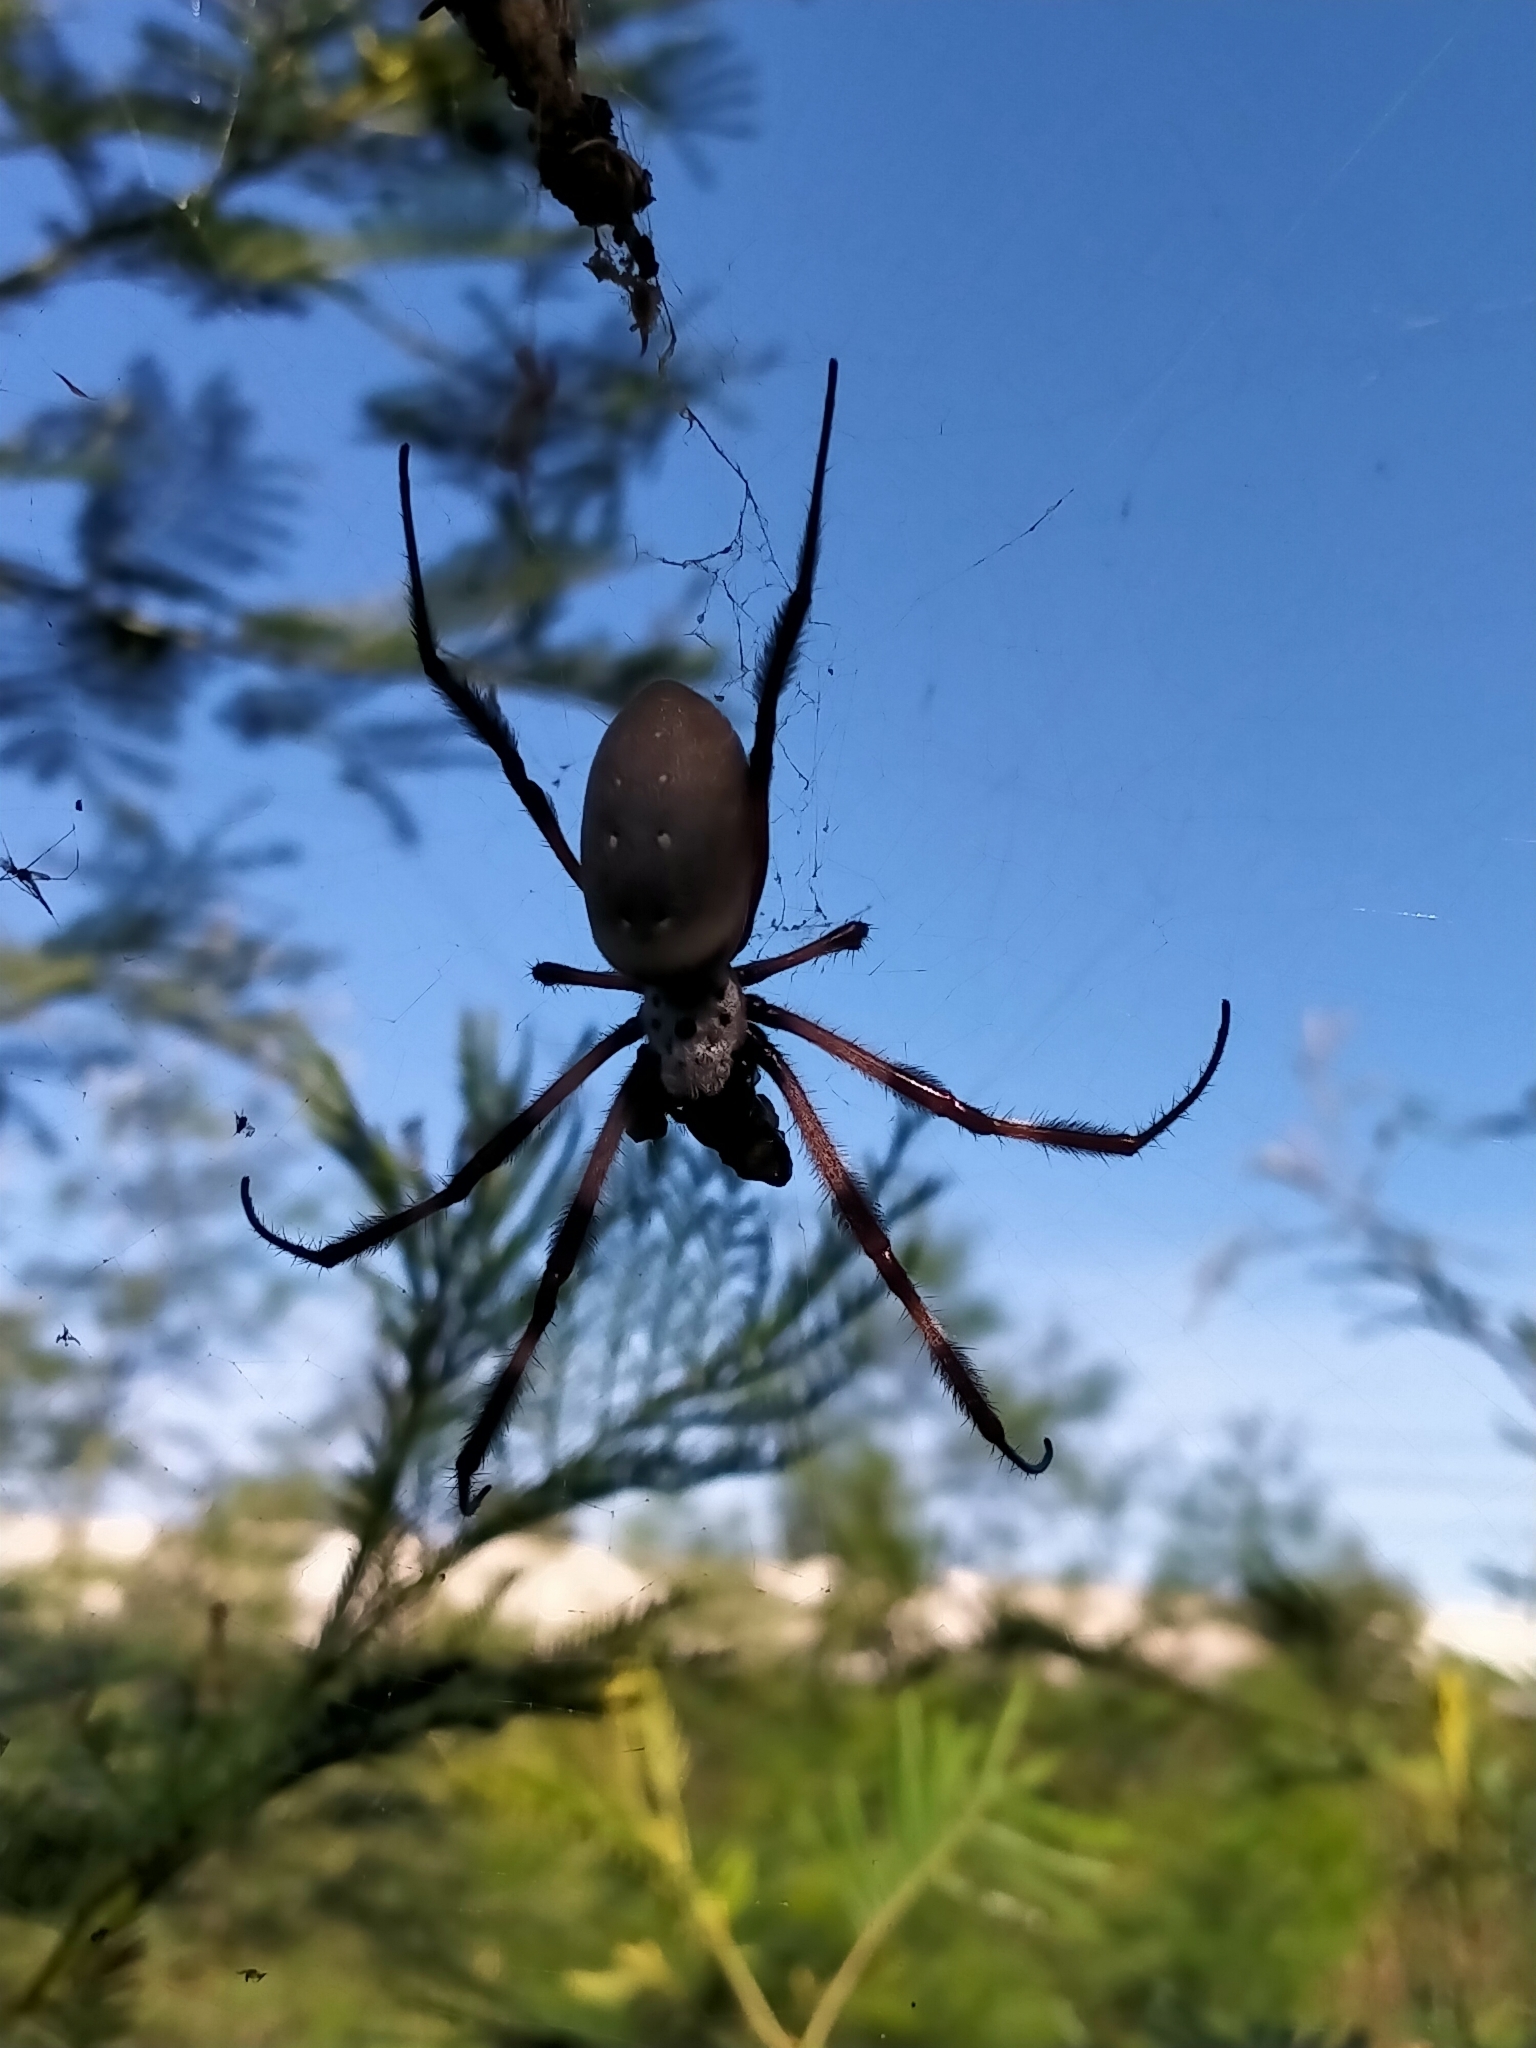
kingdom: Animalia
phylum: Arthropoda
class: Arachnida
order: Araneae
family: Araneidae
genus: Trichonephila
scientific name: Trichonephila edulis
